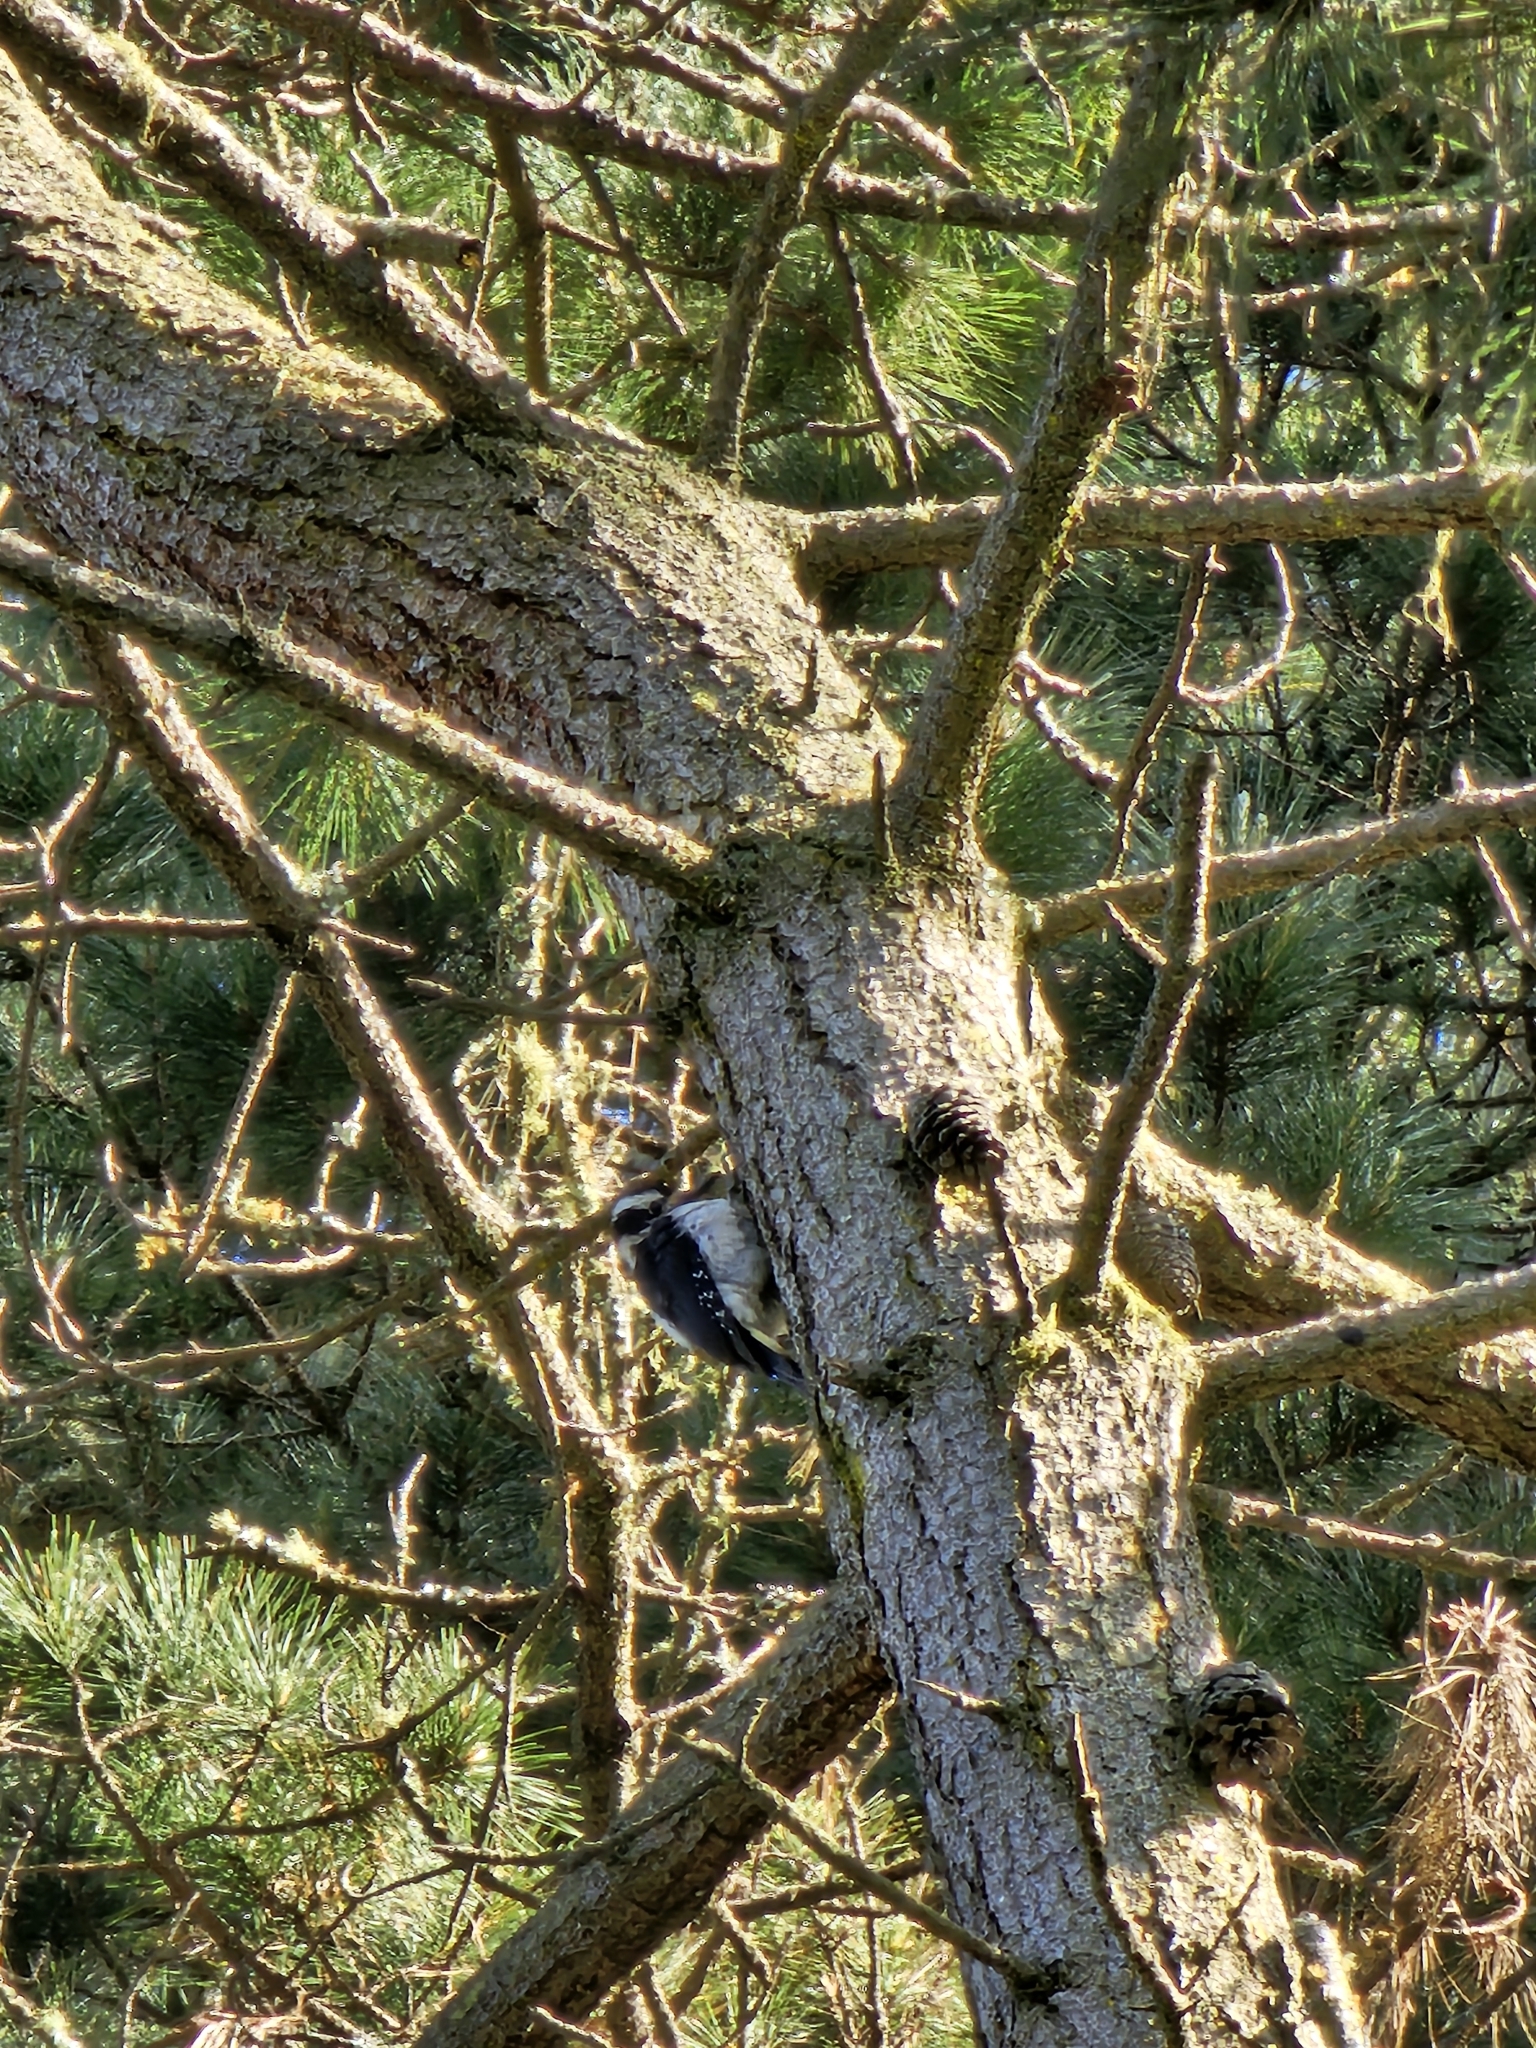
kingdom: Animalia
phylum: Chordata
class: Aves
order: Piciformes
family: Picidae
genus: Leuconotopicus
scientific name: Leuconotopicus villosus
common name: Hairy woodpecker
